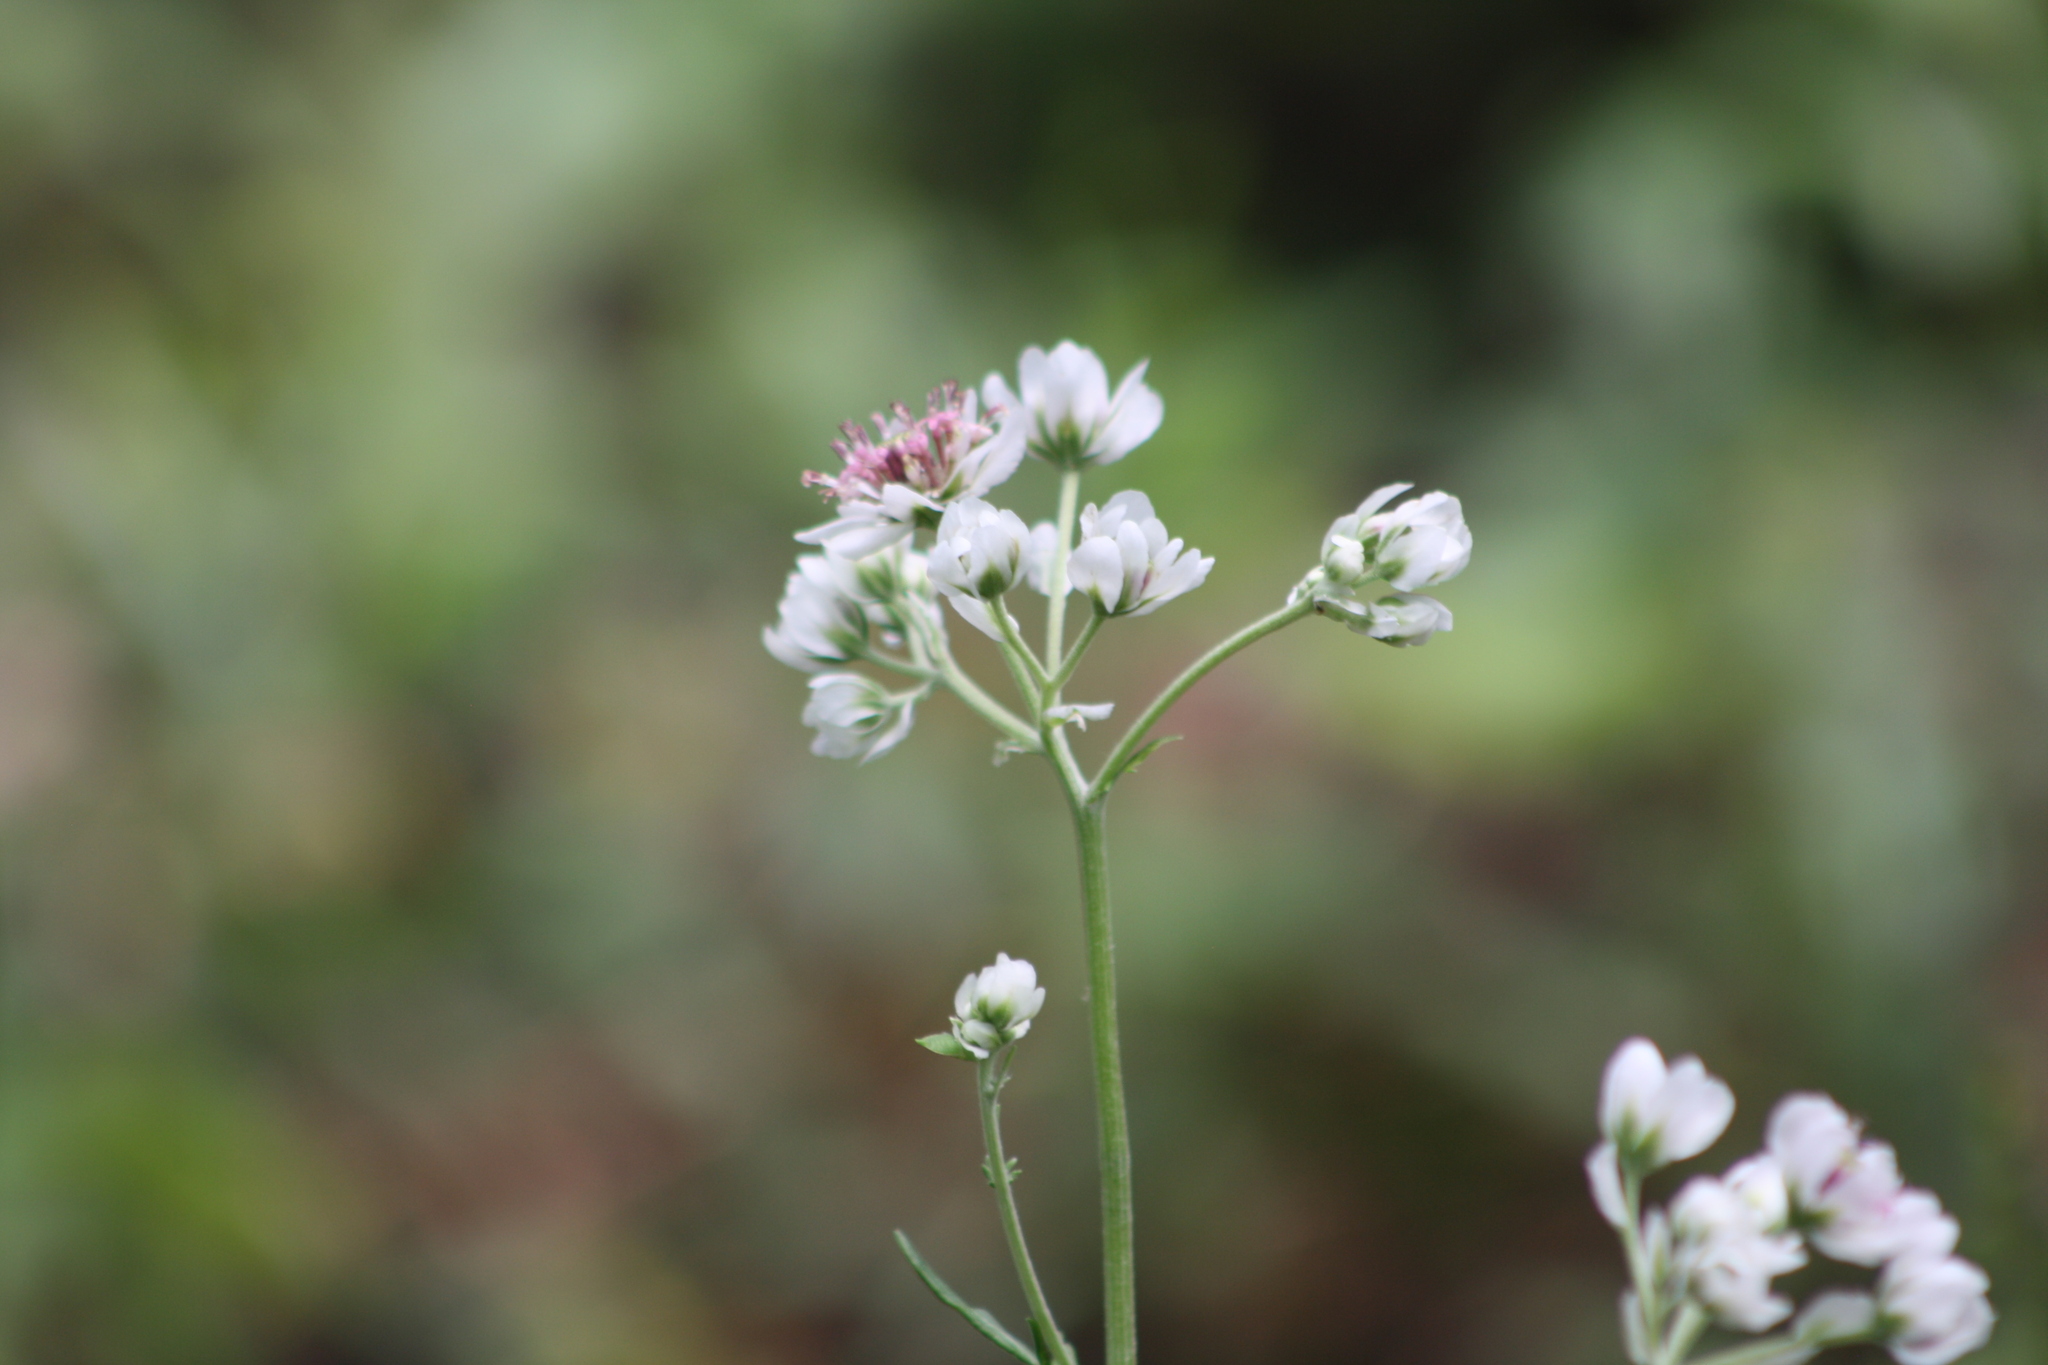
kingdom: Plantae
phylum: Tracheophyta
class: Magnoliopsida
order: Asterales
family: Asteraceae
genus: Hymenopappus
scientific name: Hymenopappus artemisiifolius
